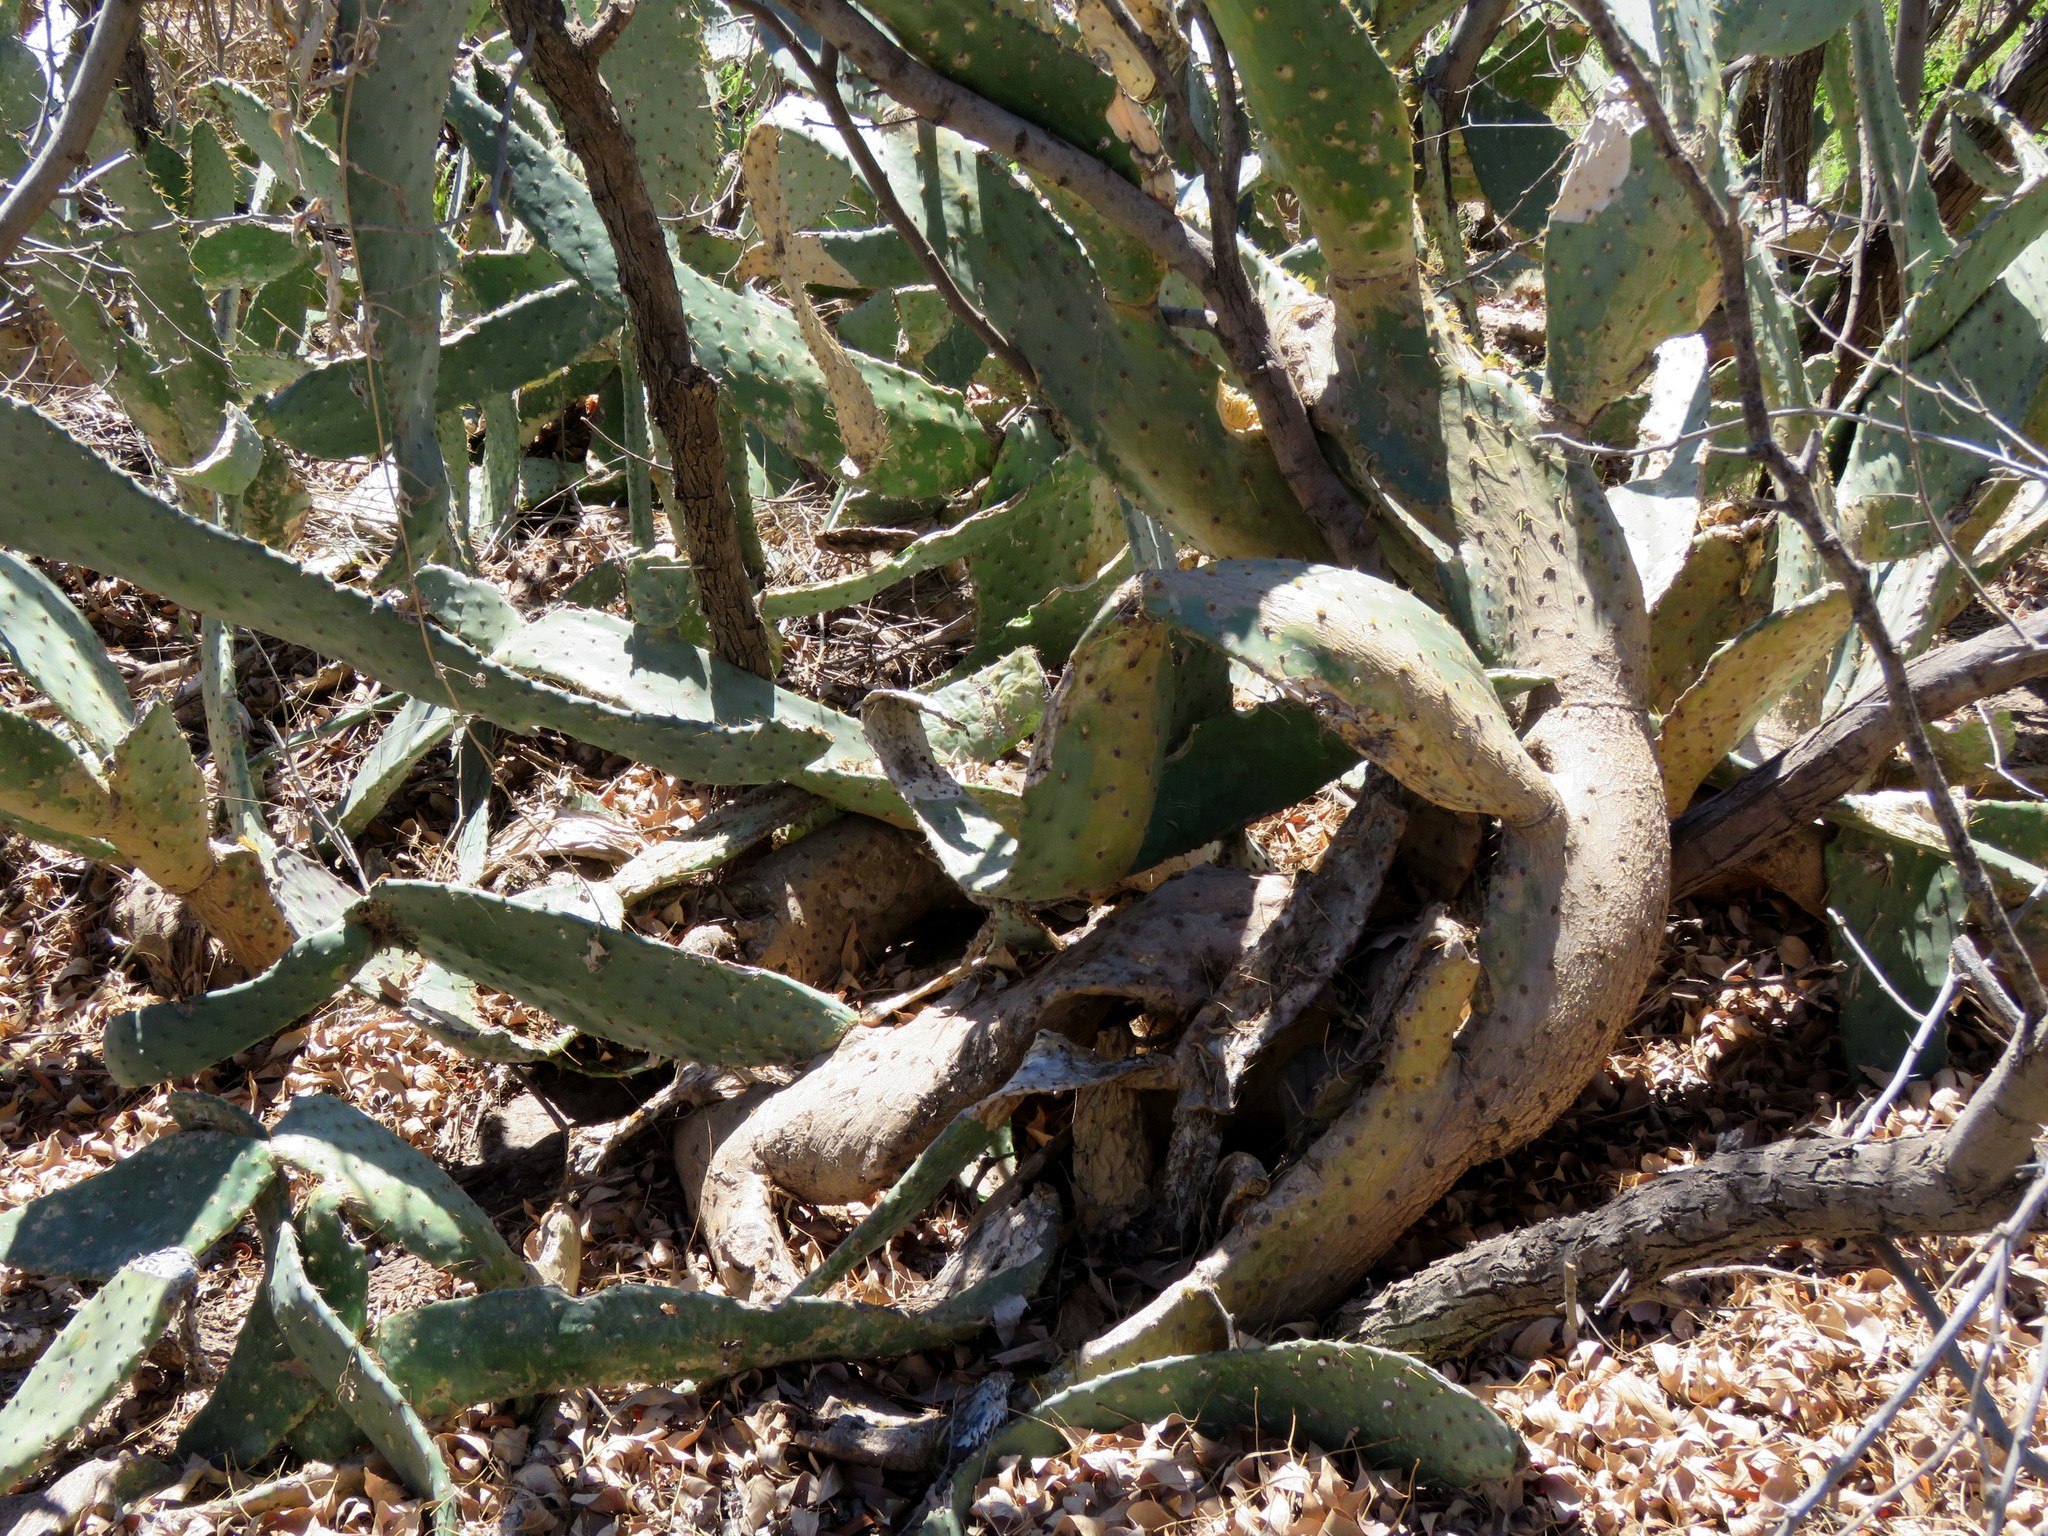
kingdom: Plantae
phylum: Tracheophyta
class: Magnoliopsida
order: Caryophyllales
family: Cactaceae
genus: Opuntia
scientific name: Opuntia engelmannii
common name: Cactus-apple
